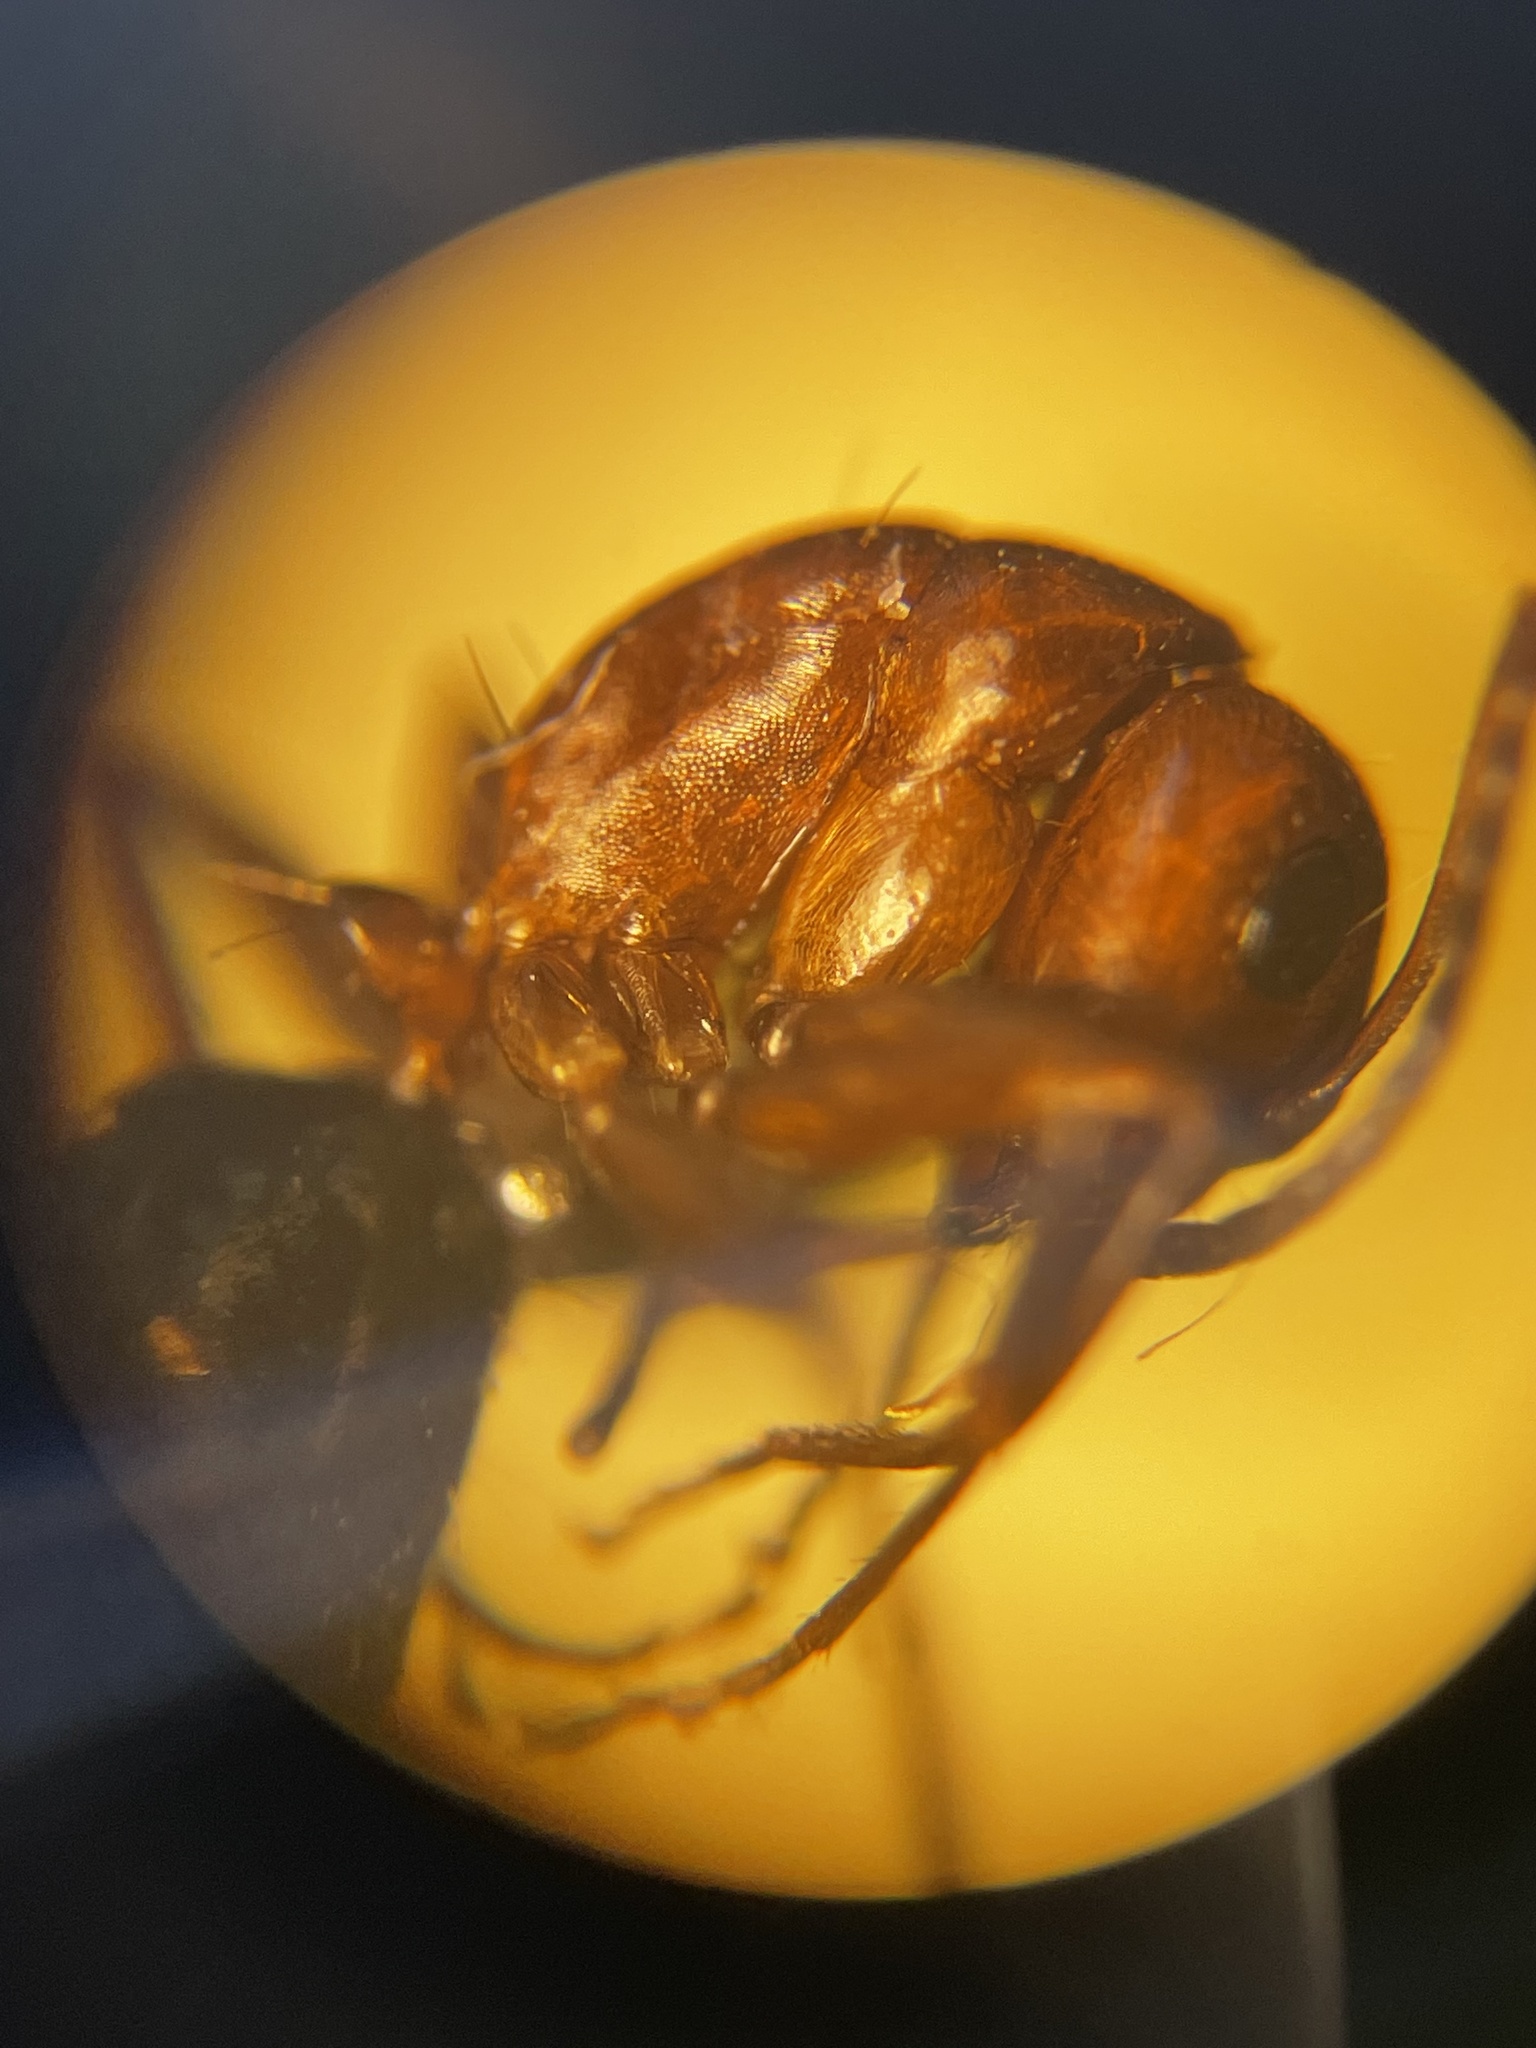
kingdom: Animalia
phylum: Arthropoda
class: Insecta
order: Hymenoptera
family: Formicidae
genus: Camponotus
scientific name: Camponotus discolor
